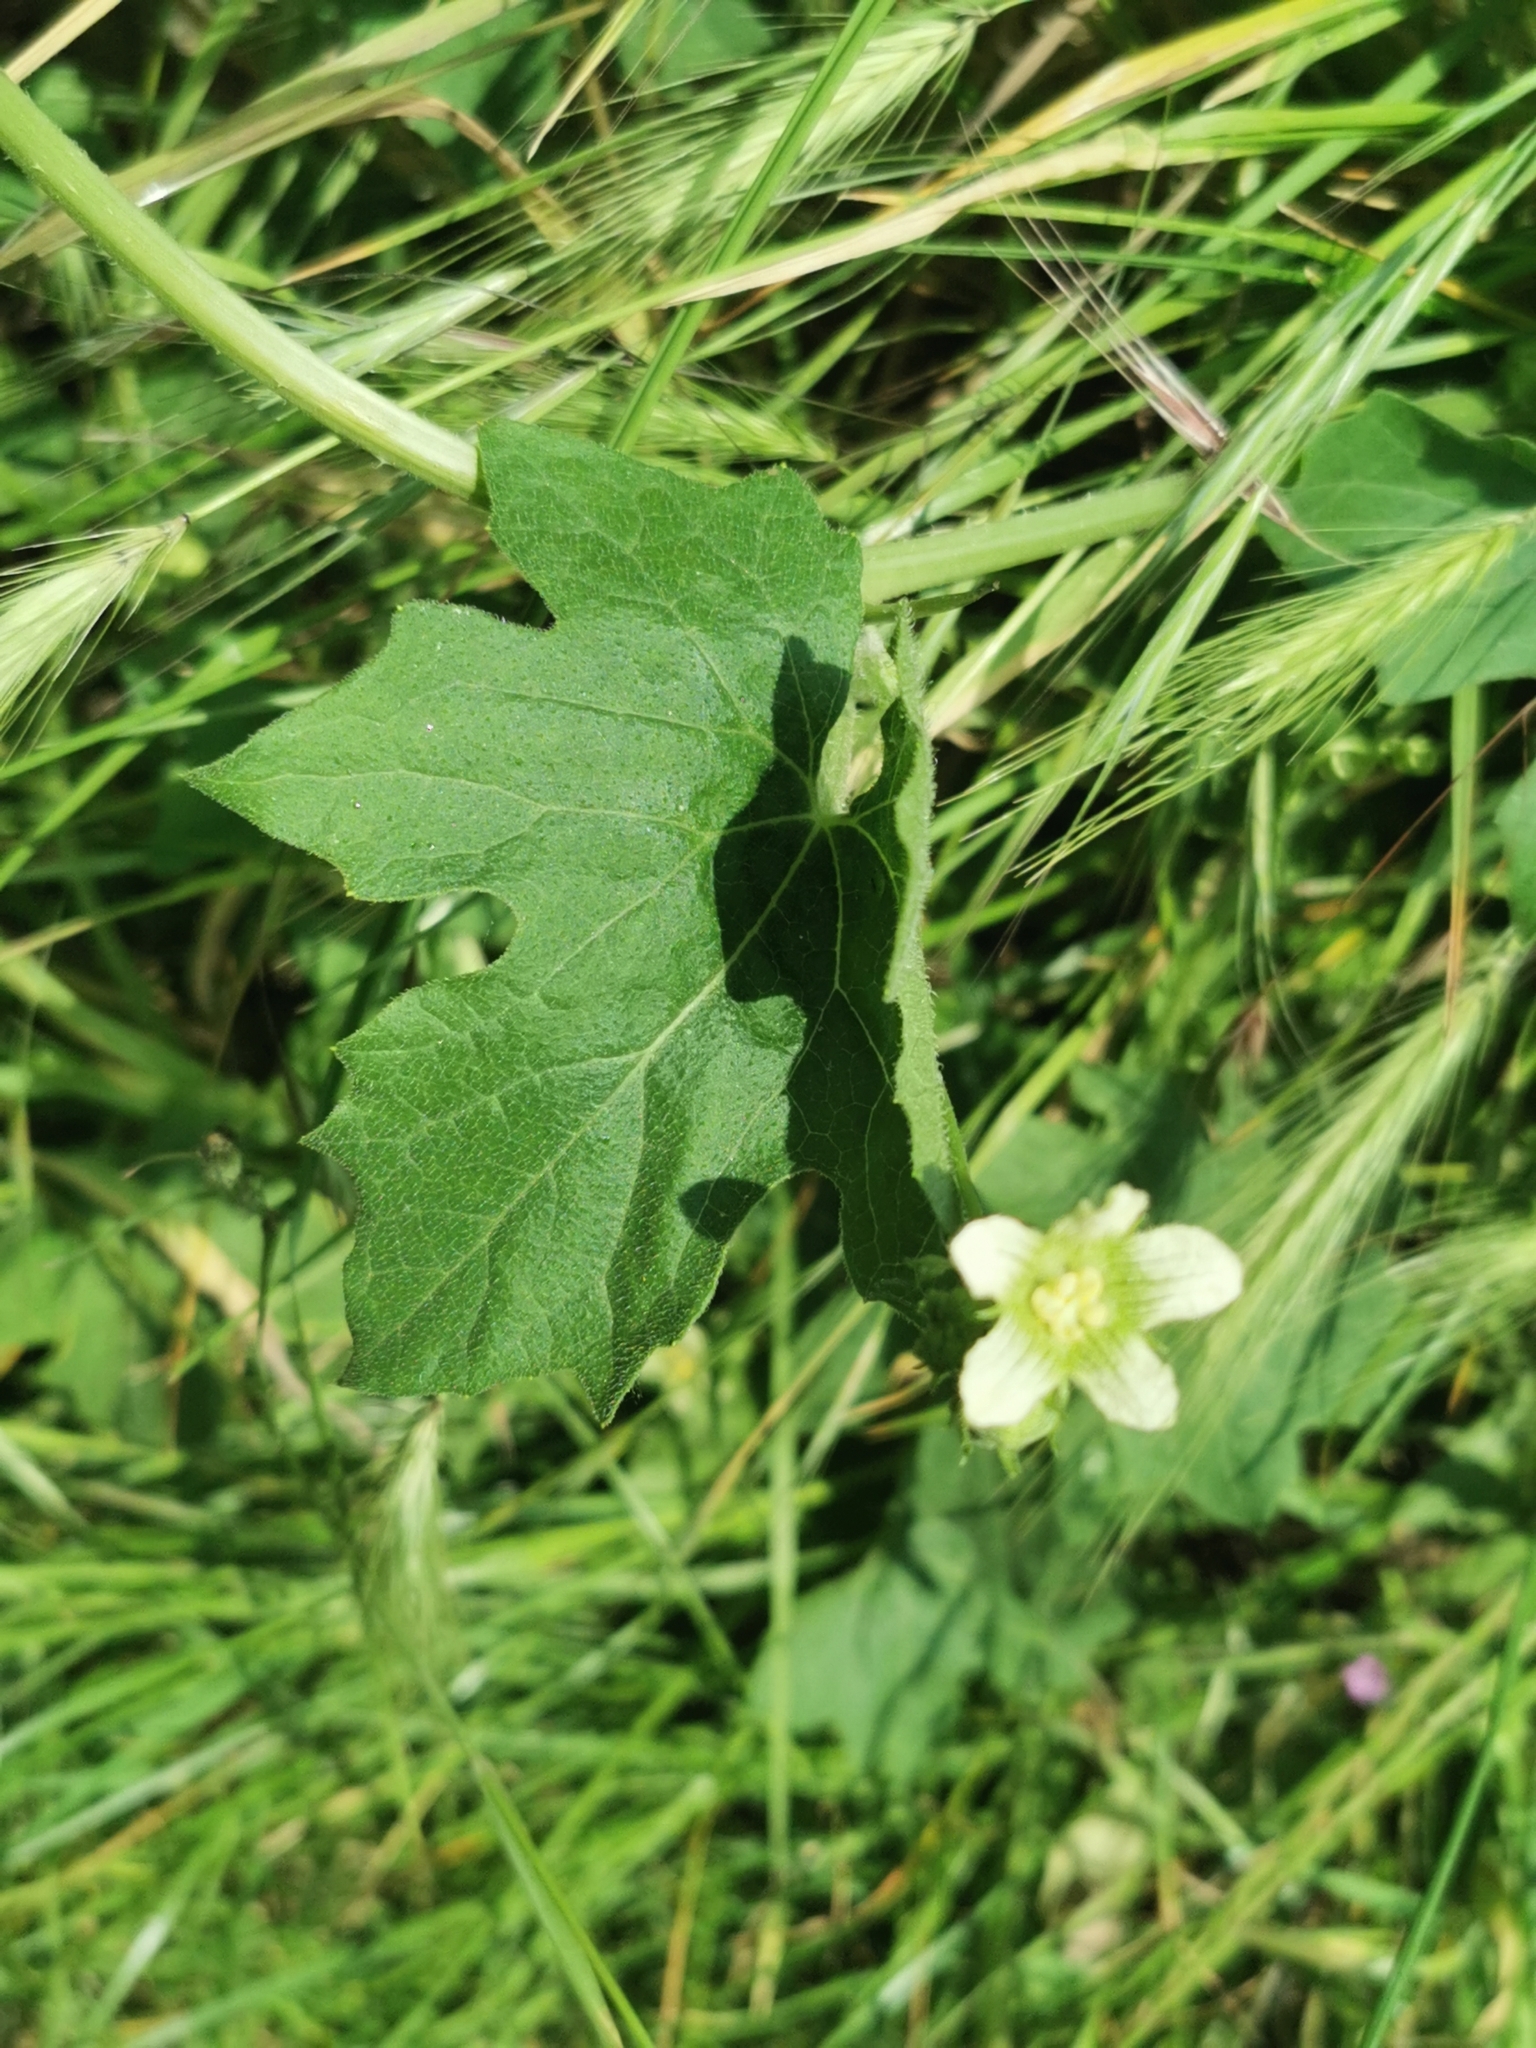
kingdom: Plantae
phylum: Tracheophyta
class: Magnoliopsida
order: Cucurbitales
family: Cucurbitaceae
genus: Bryonia
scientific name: Bryonia cretica
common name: Cretan bryony
